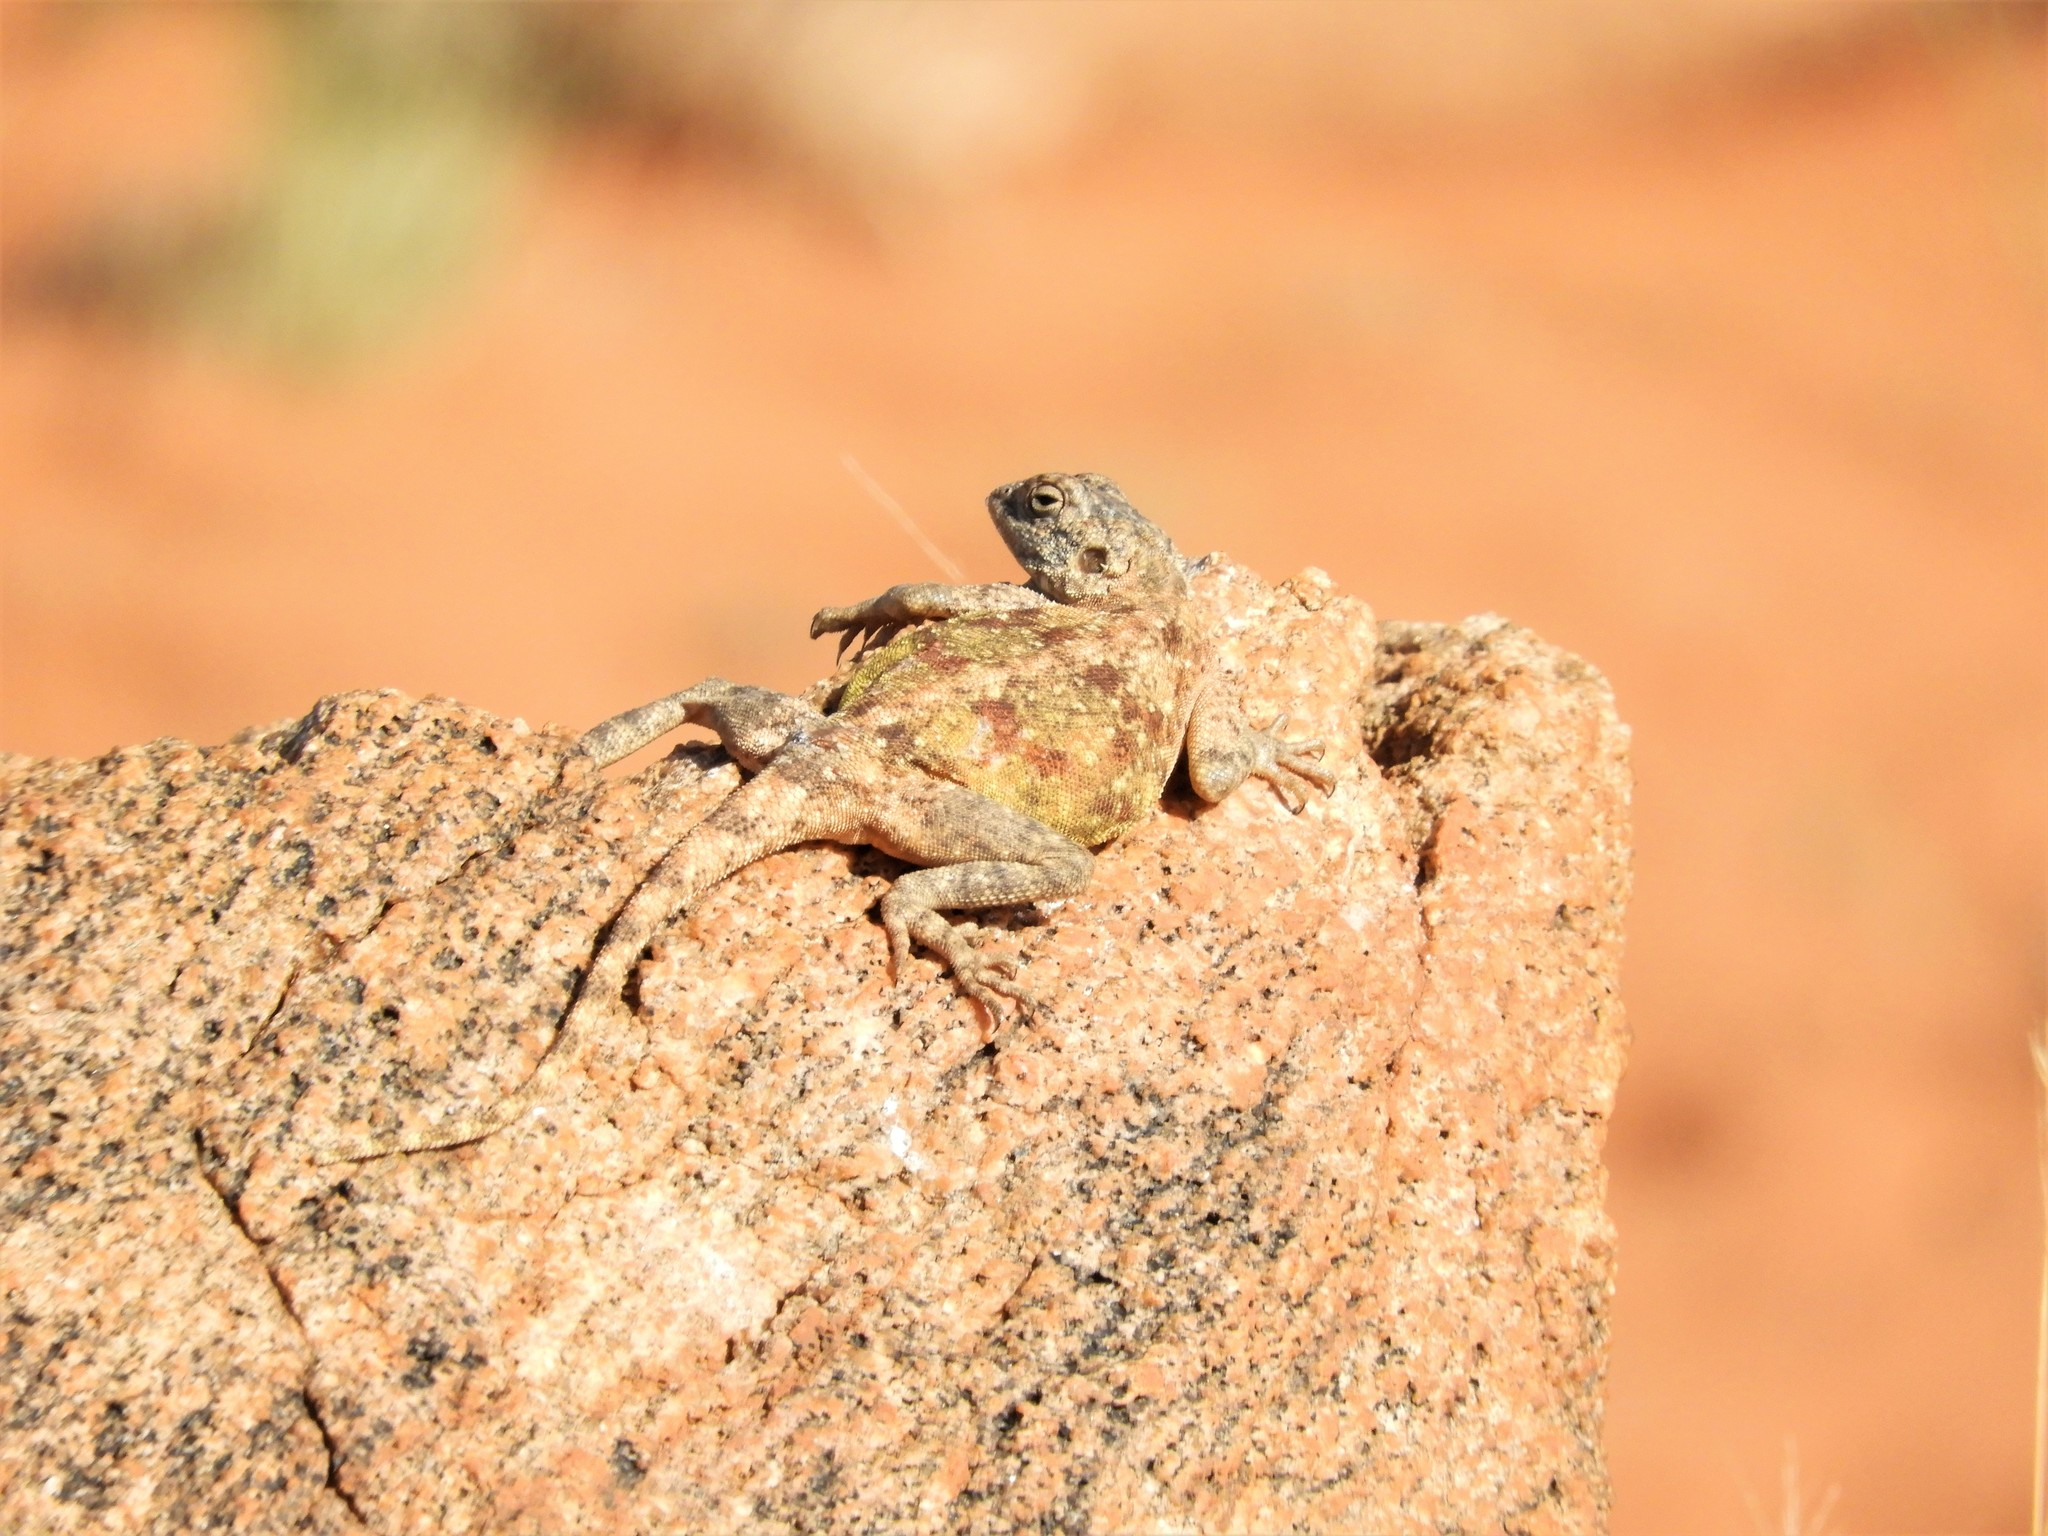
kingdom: Animalia
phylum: Chordata
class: Squamata
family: Agamidae
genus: Agama
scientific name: Agama atra
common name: Southern african rock agama
